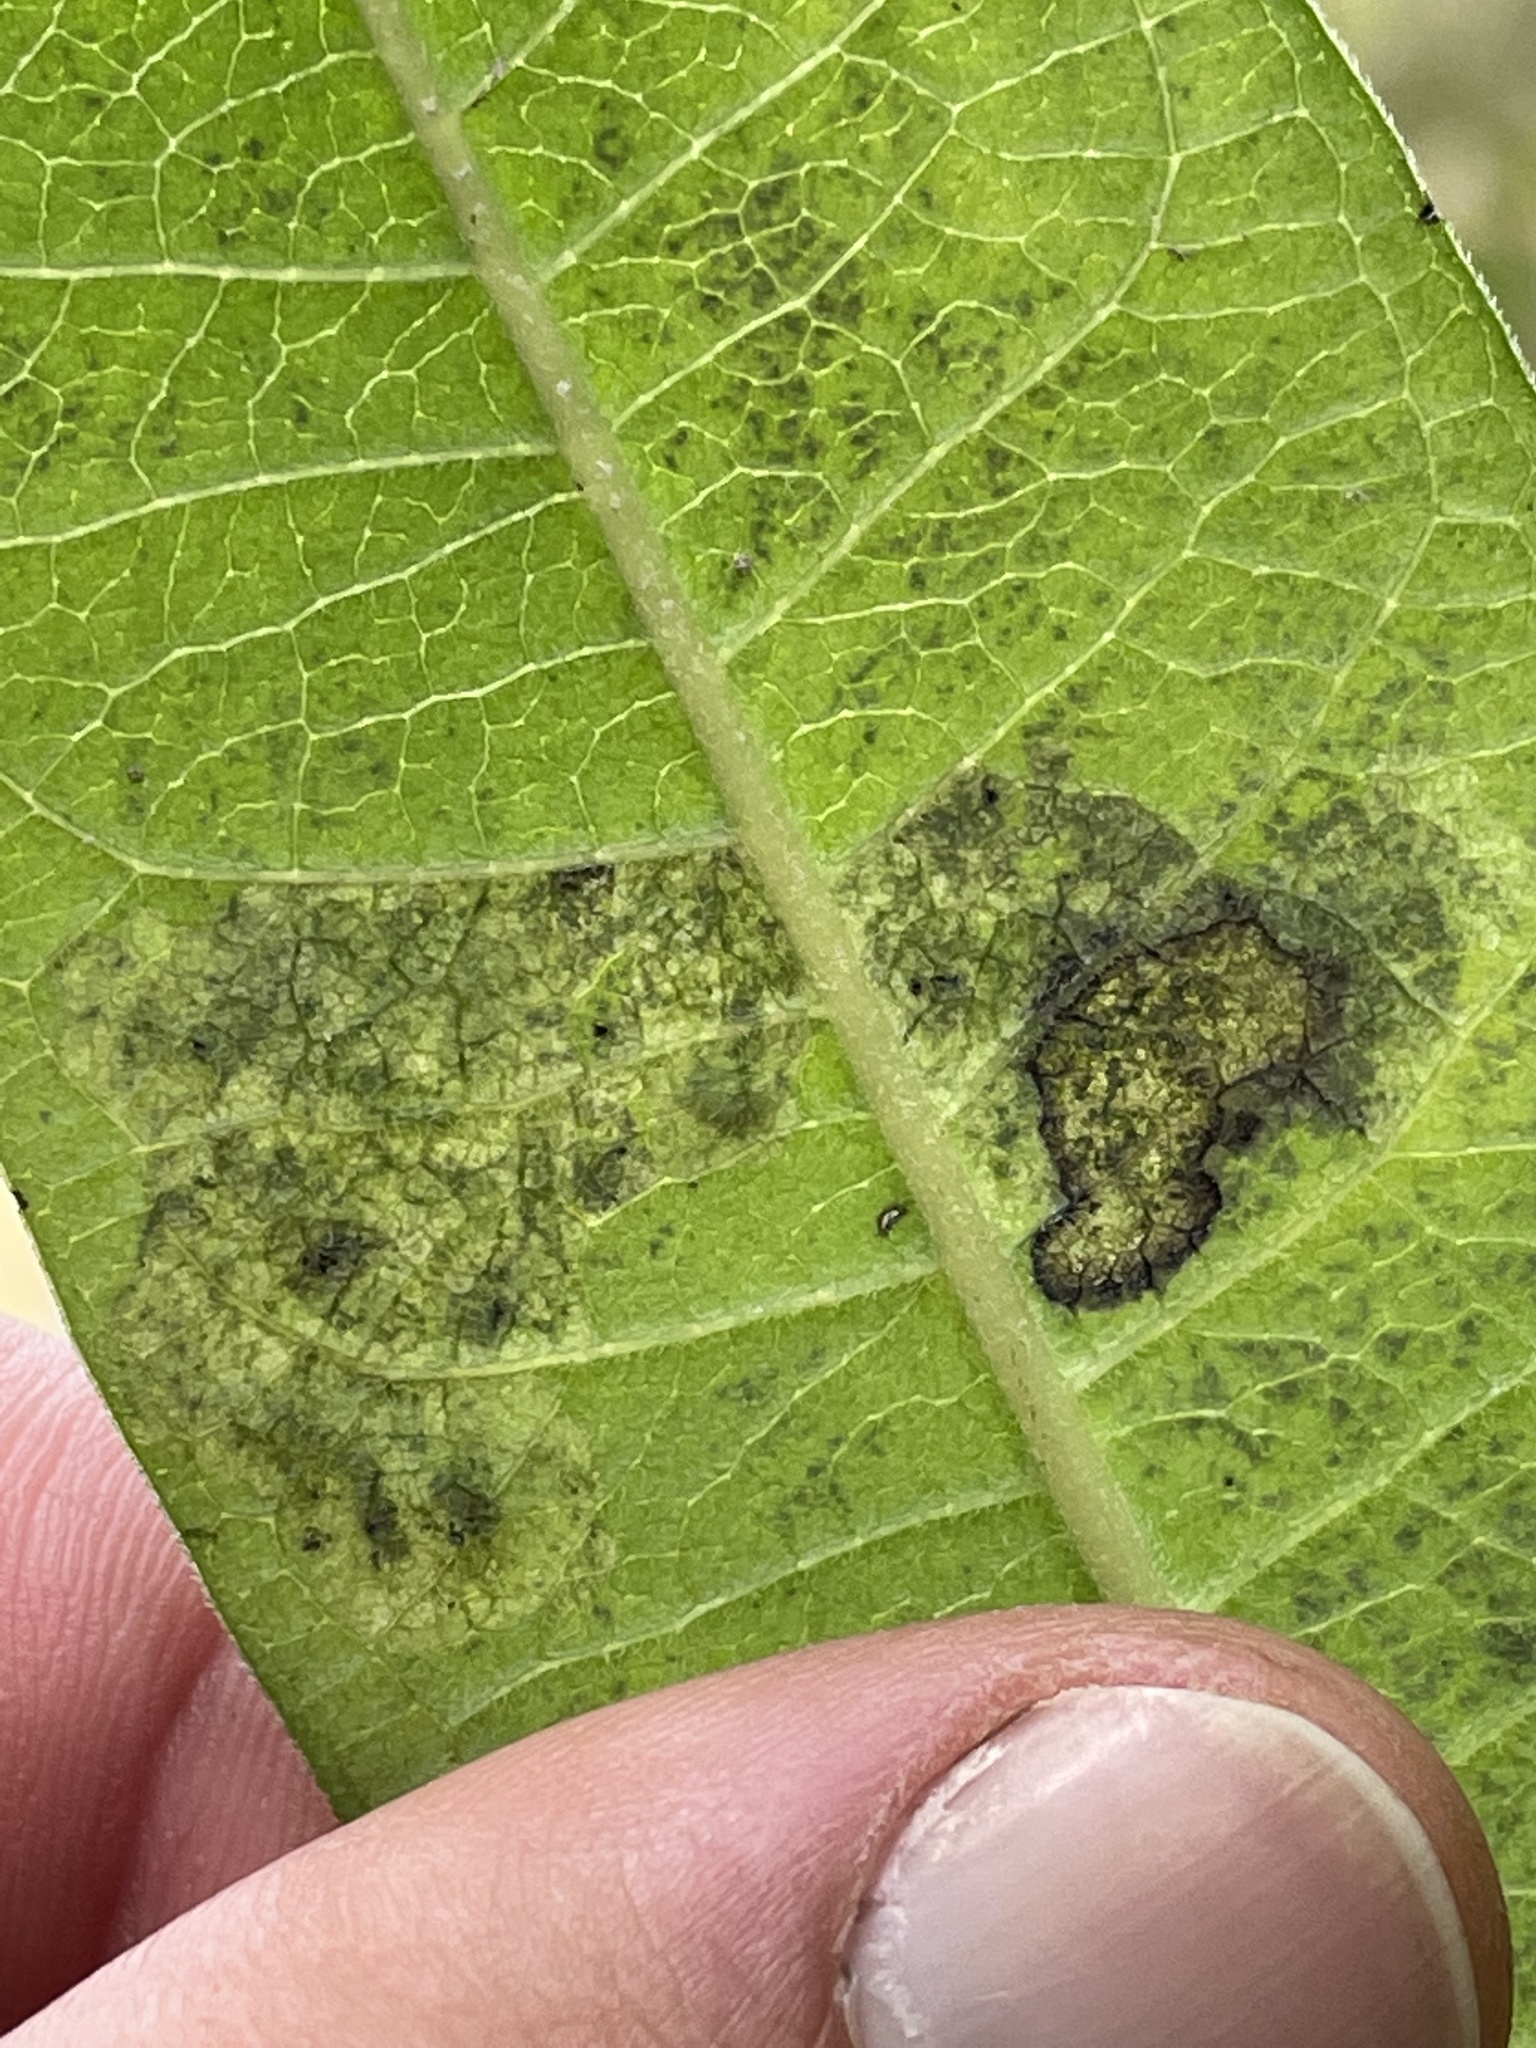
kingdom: Animalia
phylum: Arthropoda
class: Insecta
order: Diptera
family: Agromyzidae
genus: Liriomyza
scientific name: Liriomyza asclepiadis
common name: Milkweed leaf-miner fly
